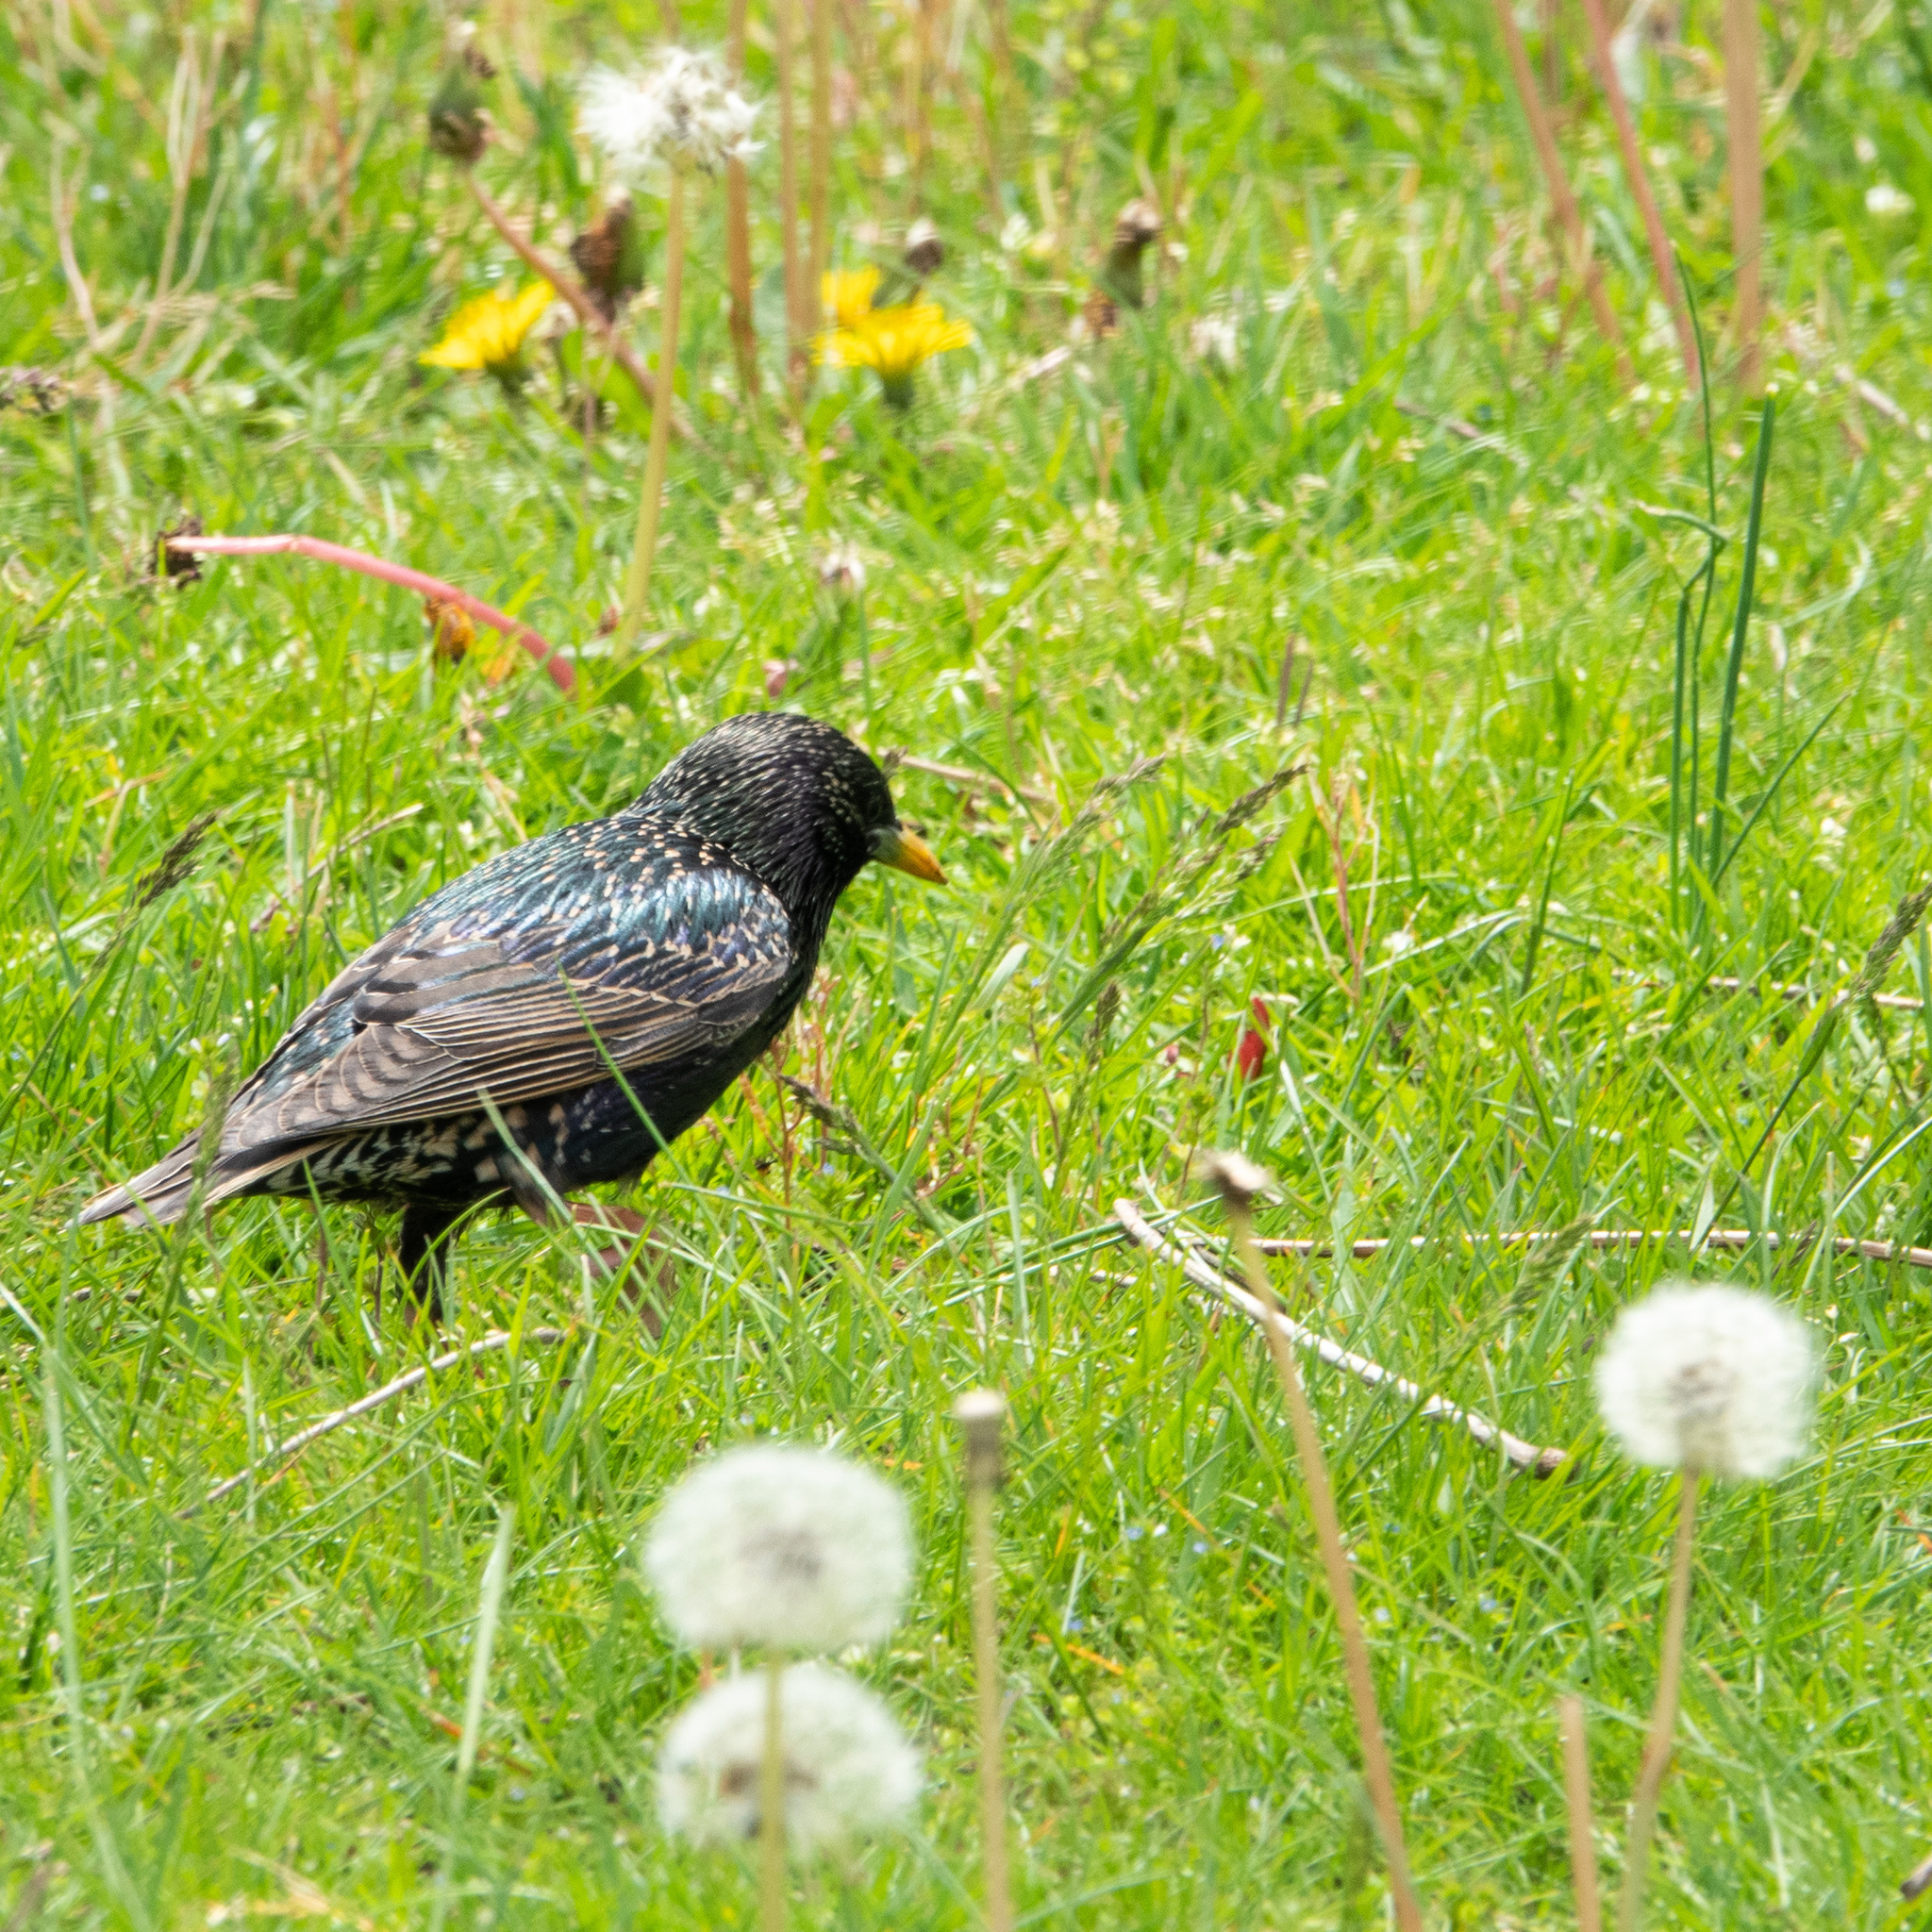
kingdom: Animalia
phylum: Chordata
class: Aves
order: Passeriformes
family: Sturnidae
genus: Sturnus
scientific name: Sturnus vulgaris
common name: Common starling
